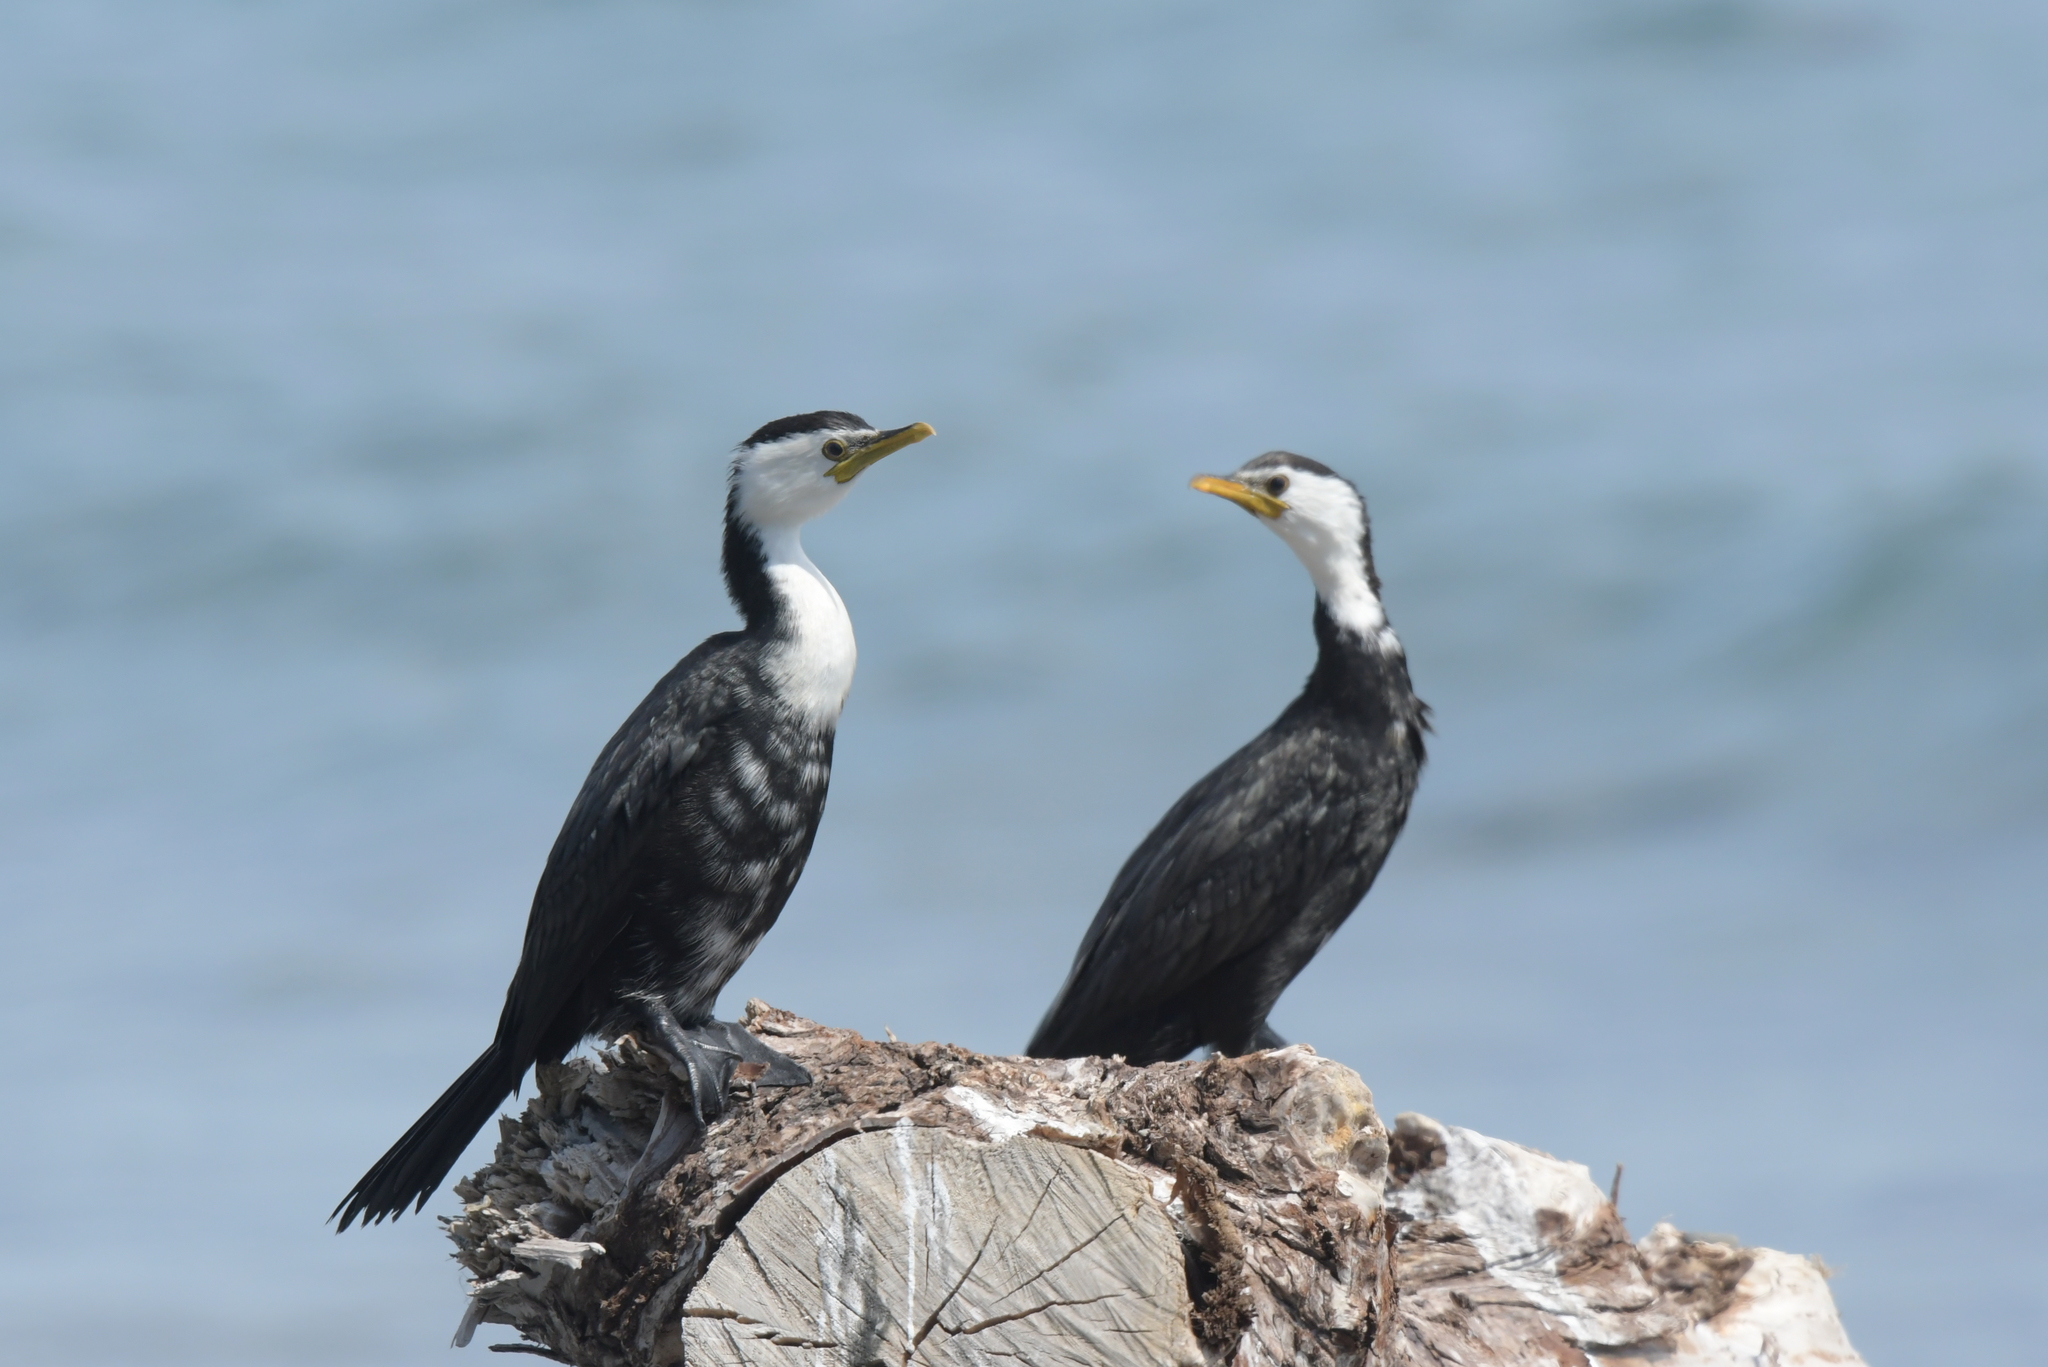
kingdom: Animalia
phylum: Chordata
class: Aves
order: Suliformes
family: Phalacrocoracidae
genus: Microcarbo
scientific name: Microcarbo melanoleucos
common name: Little pied cormorant
